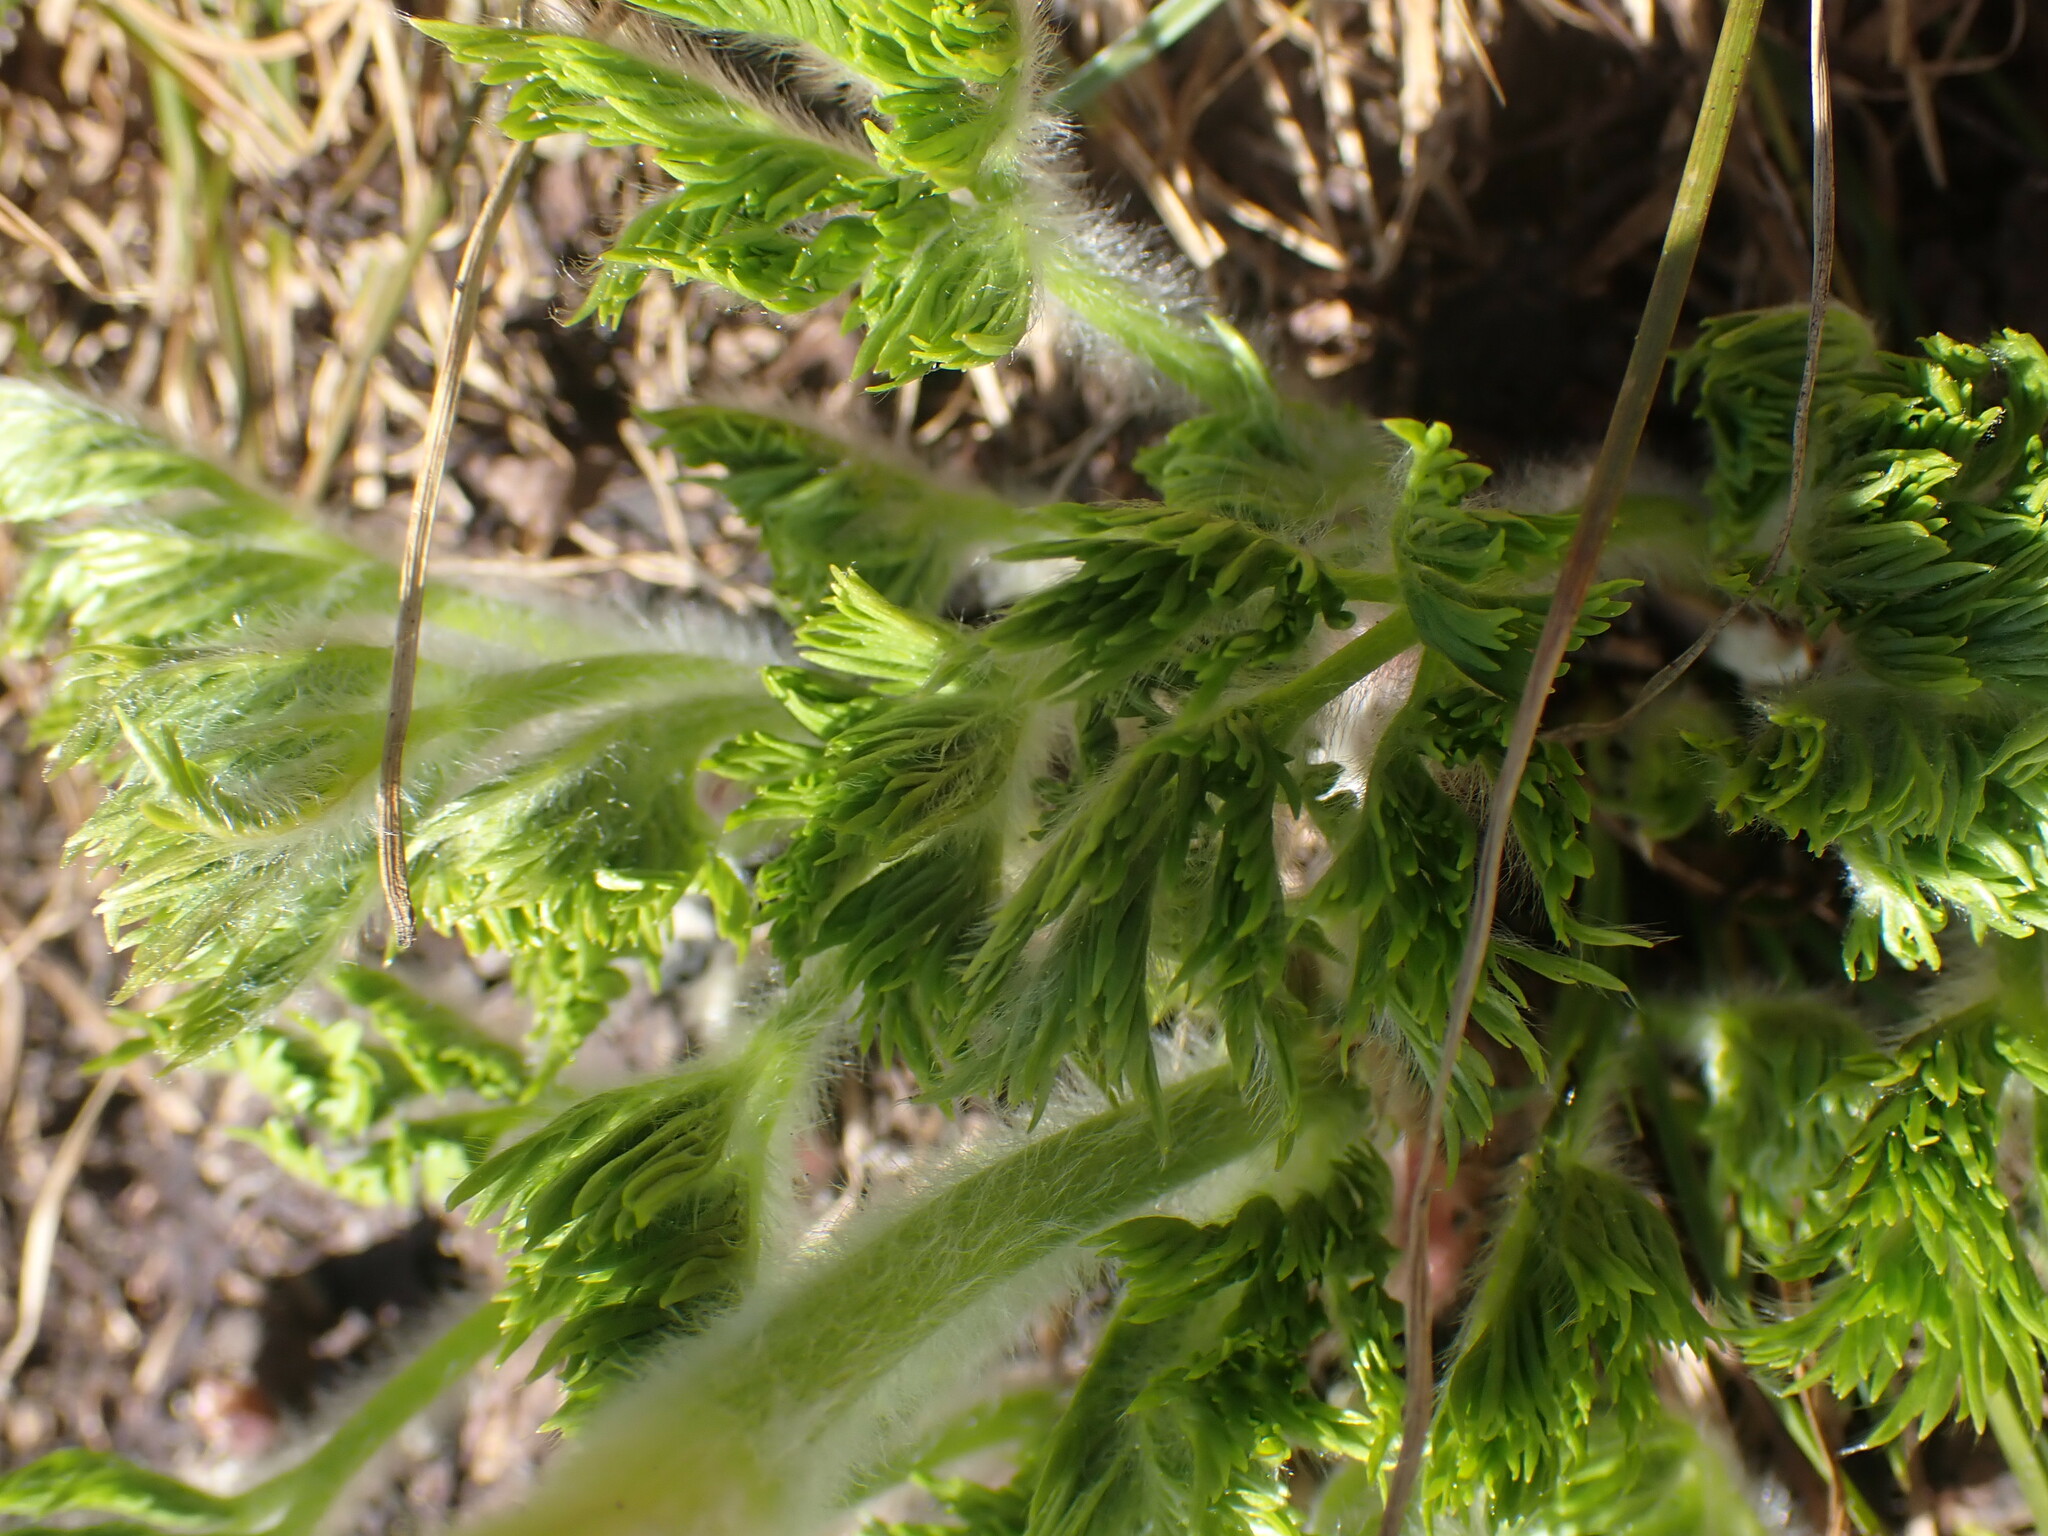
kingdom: Plantae
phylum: Tracheophyta
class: Magnoliopsida
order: Ranunculales
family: Ranunculaceae
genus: Pulsatilla
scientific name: Pulsatilla occidentalis
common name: Mountain pasqueflower
